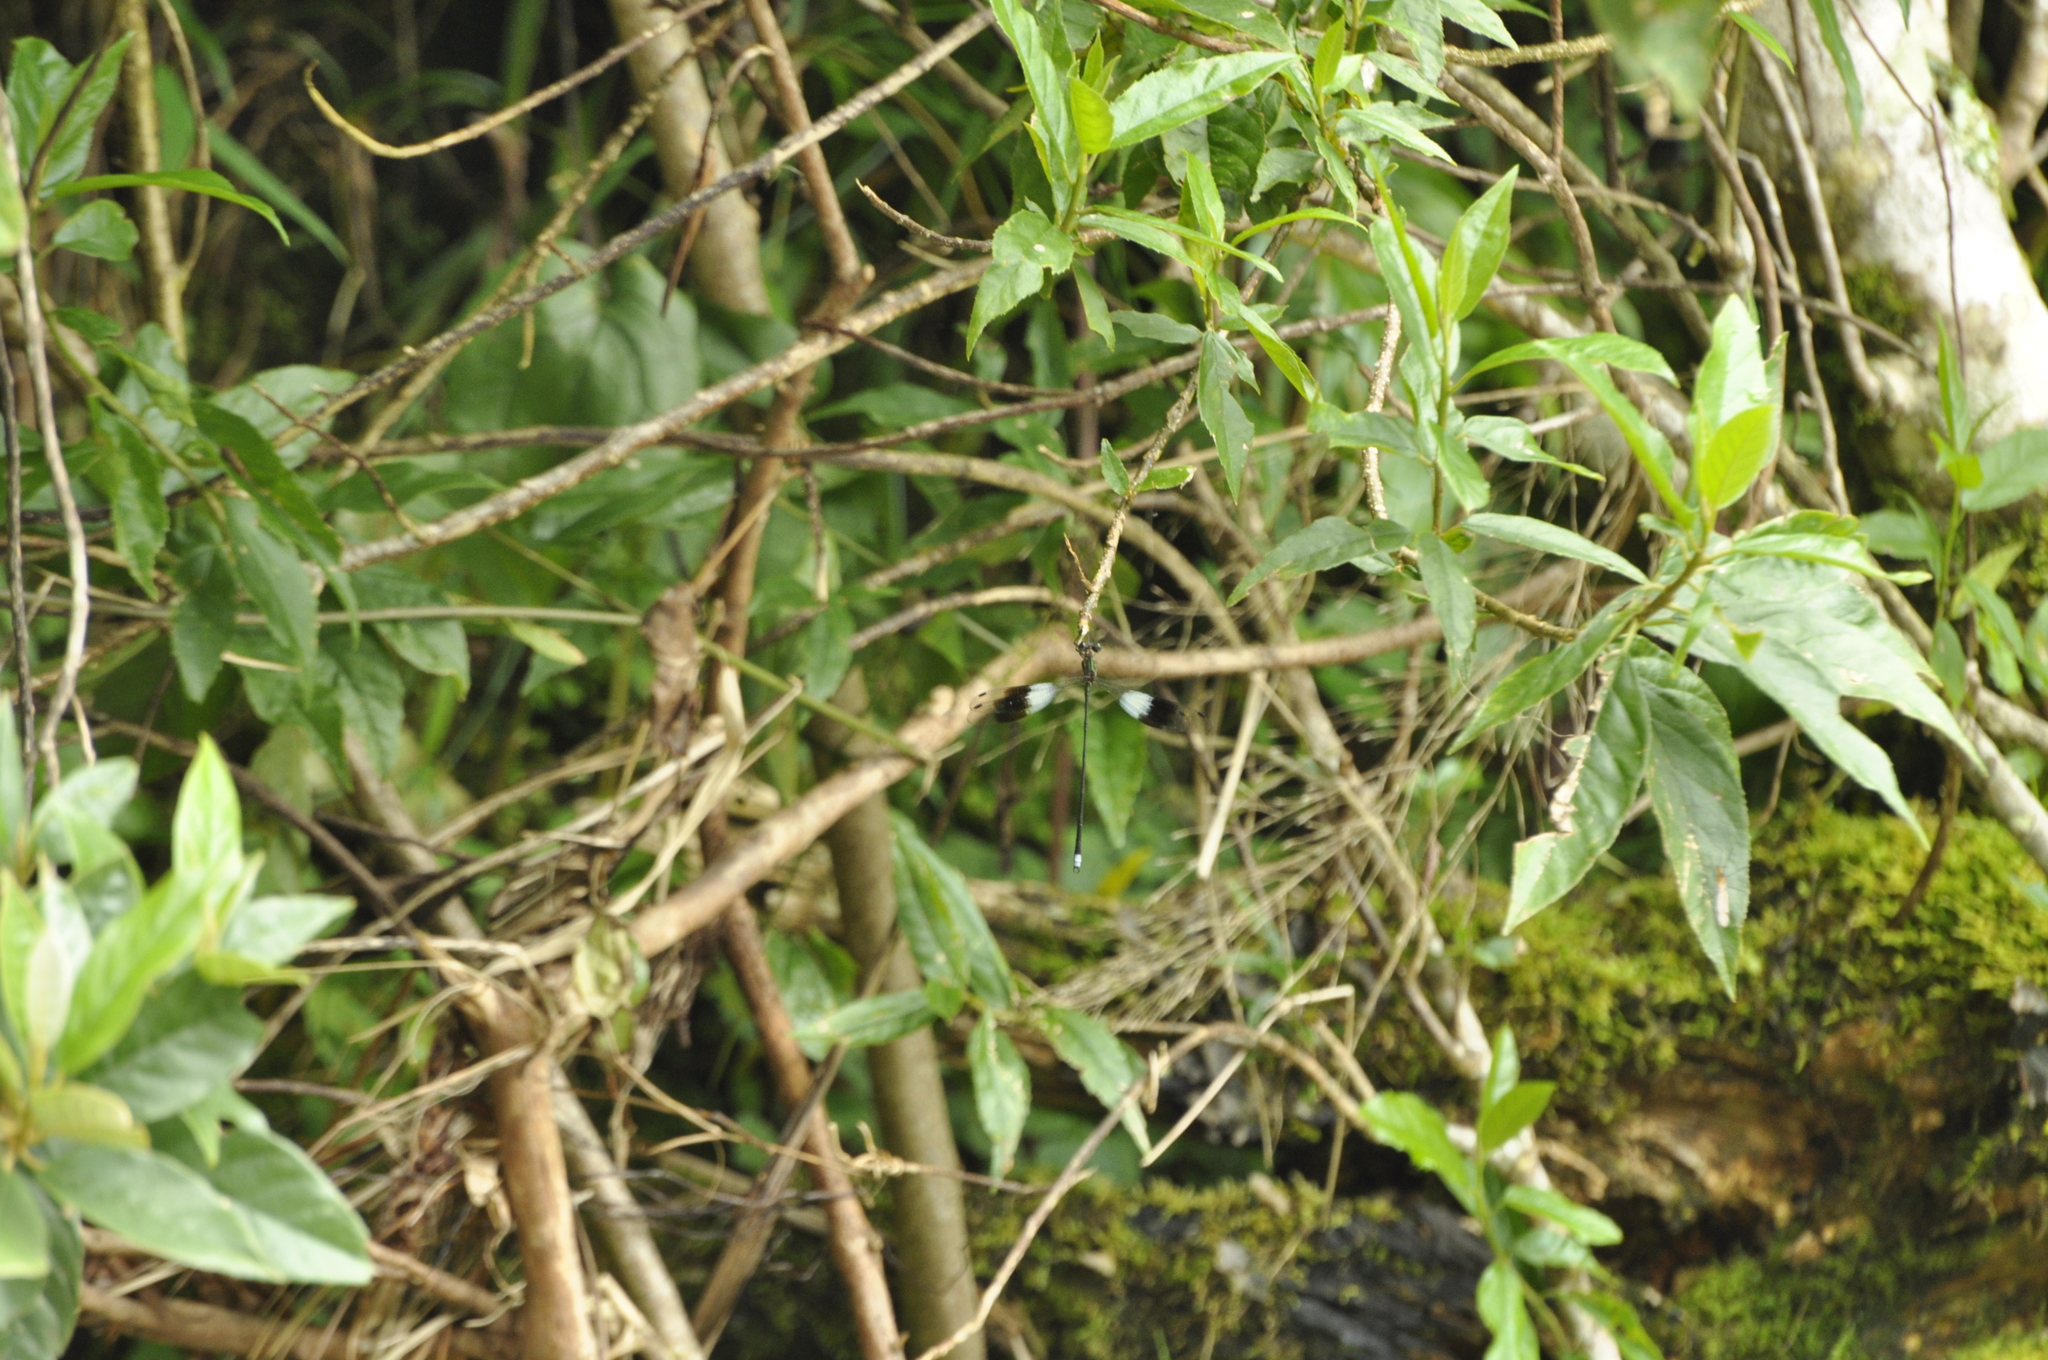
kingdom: Animalia
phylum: Arthropoda
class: Insecta
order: Odonata
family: Synlestidae
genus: Chlorolestes
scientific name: Chlorolestes elegans
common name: Elegant malachite
